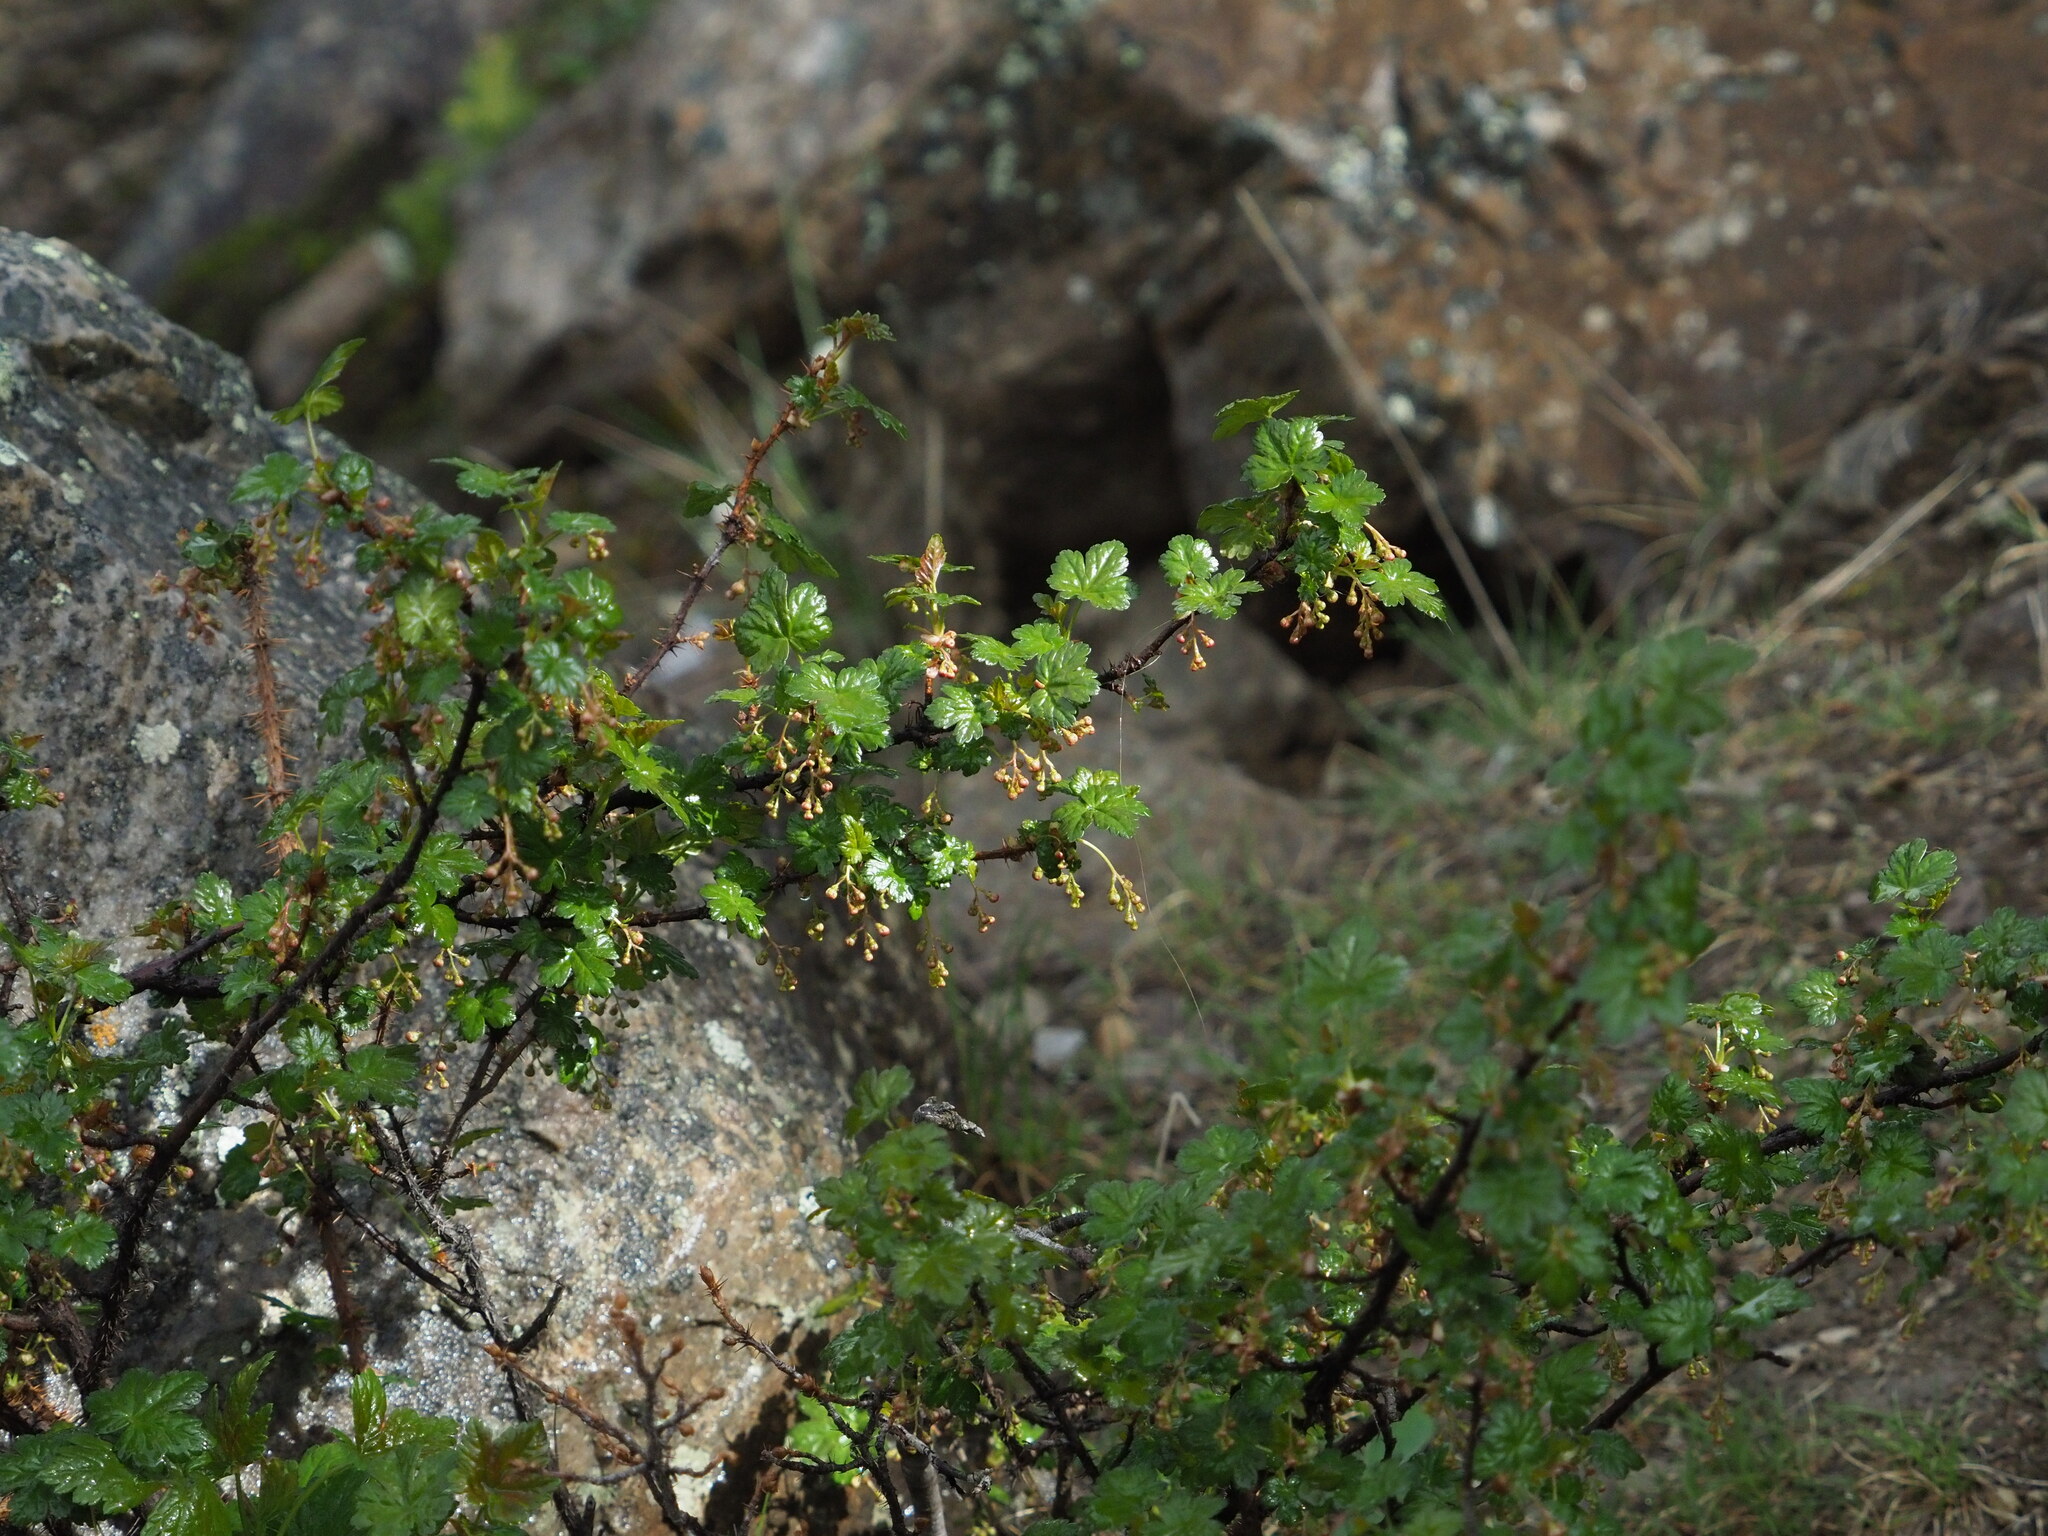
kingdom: Plantae
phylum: Tracheophyta
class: Magnoliopsida
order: Saxifragales
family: Grossulariaceae
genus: Ribes
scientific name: Ribes lacustre
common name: Black gooseberry
